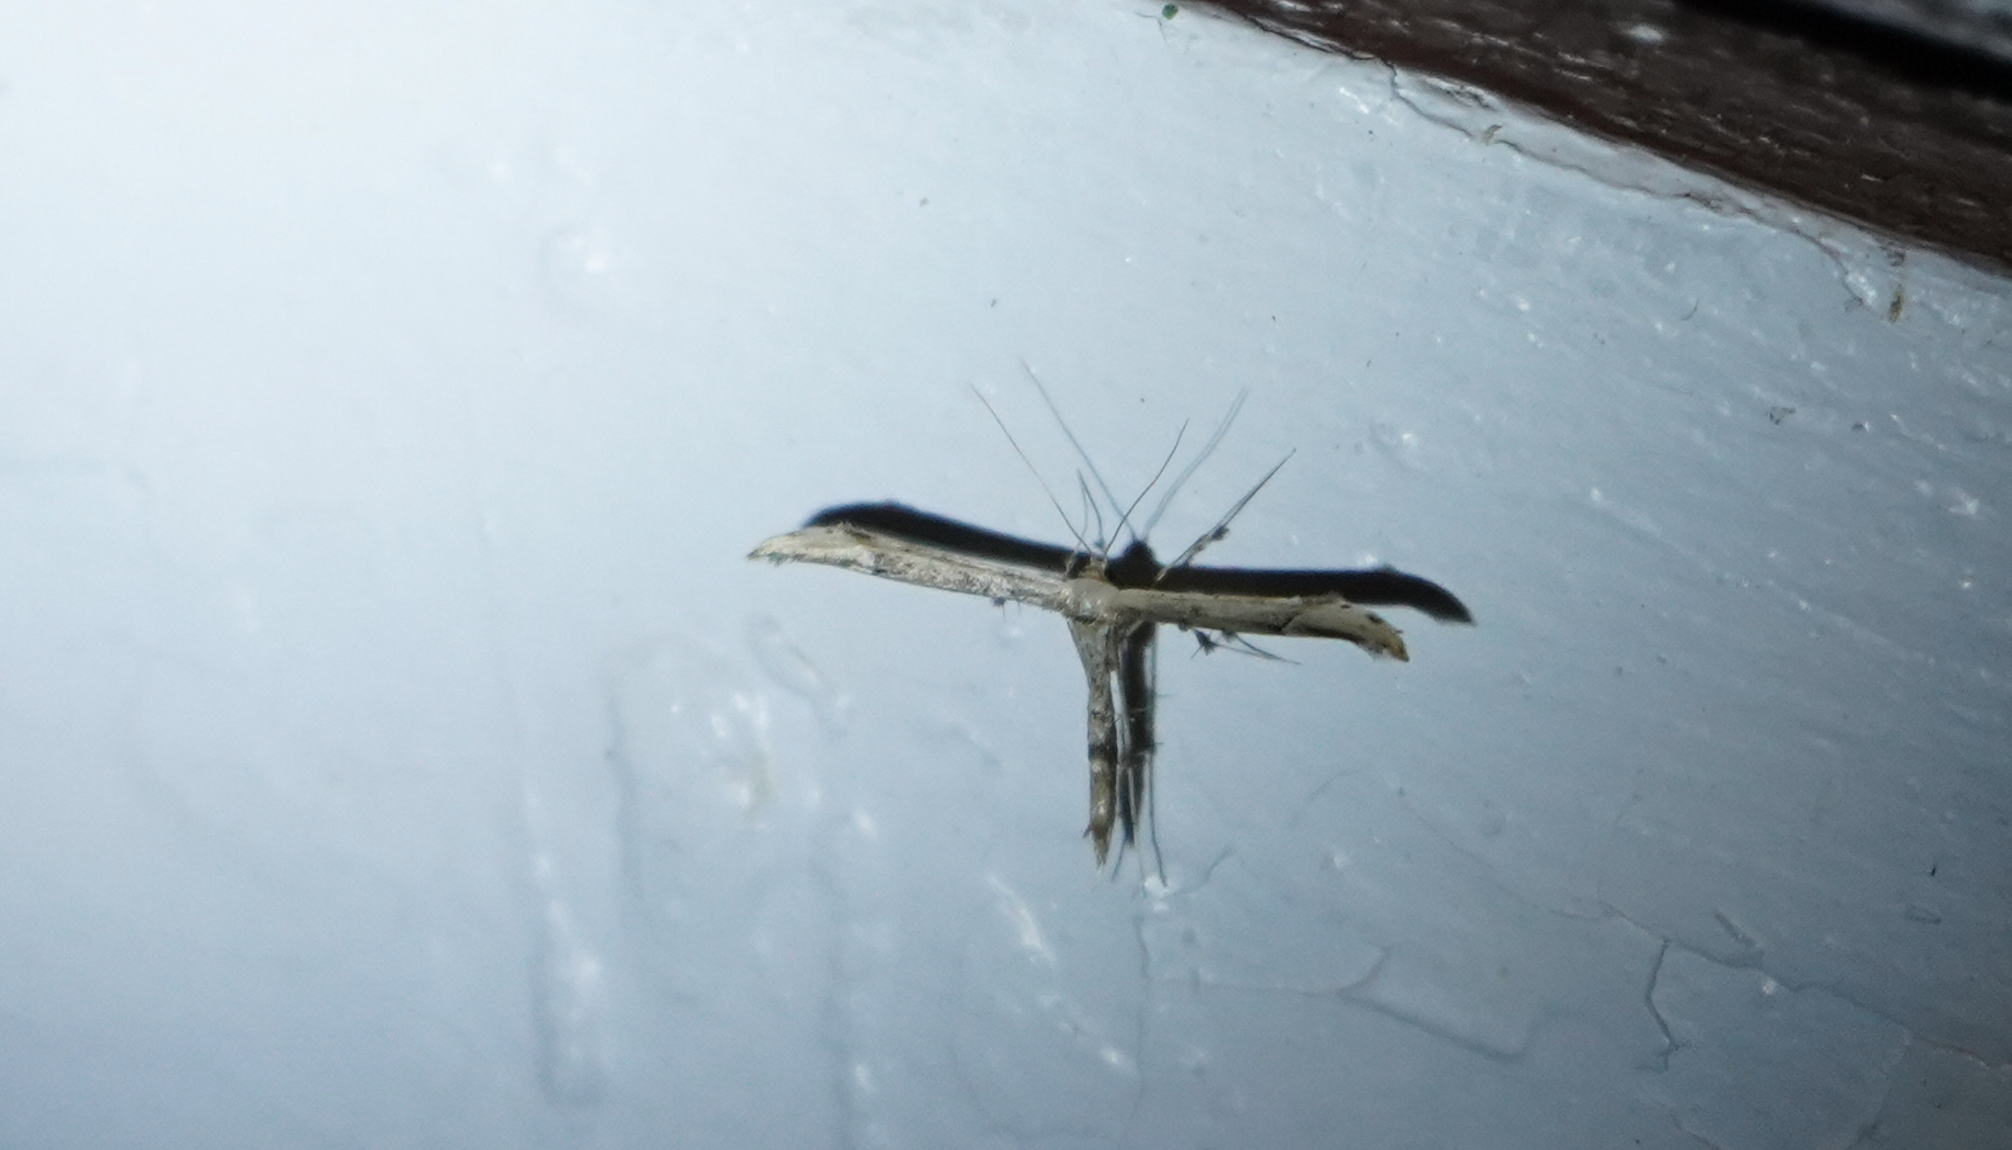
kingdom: Animalia
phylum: Arthropoda
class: Insecta
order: Lepidoptera
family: Pterophoridae
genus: Oidaematophorus
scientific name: Oidaematophorus eupatorii
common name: Eupatorium plume moth
